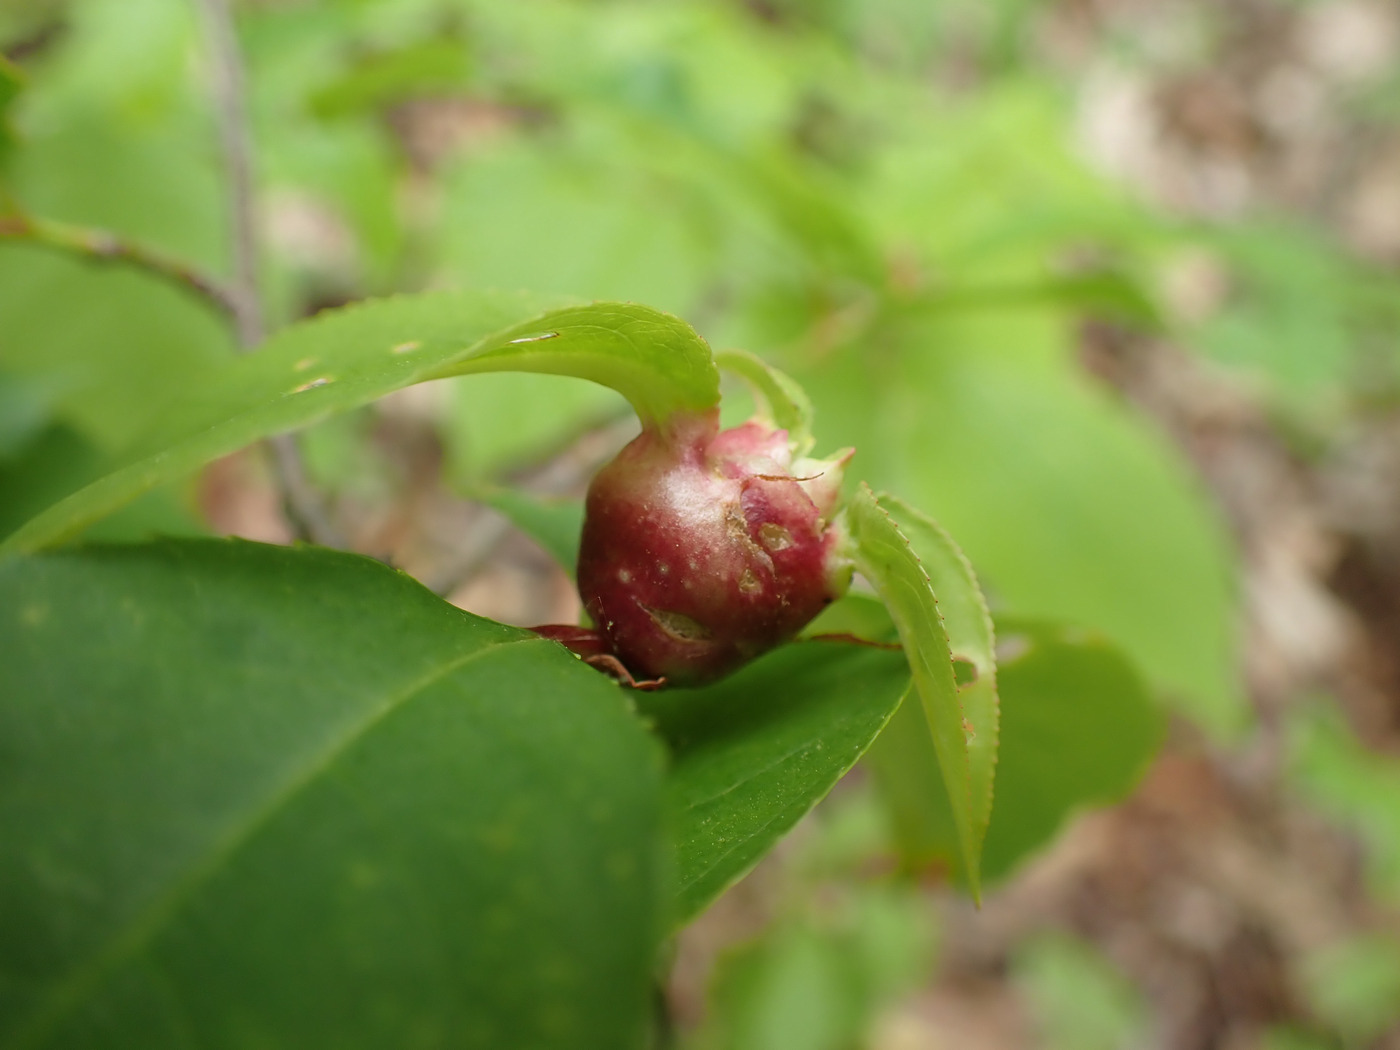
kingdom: Animalia
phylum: Arthropoda
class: Insecta
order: Diptera
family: Cecidomyiidae
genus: Contarinia
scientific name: Contarinia cerasiserotinae
